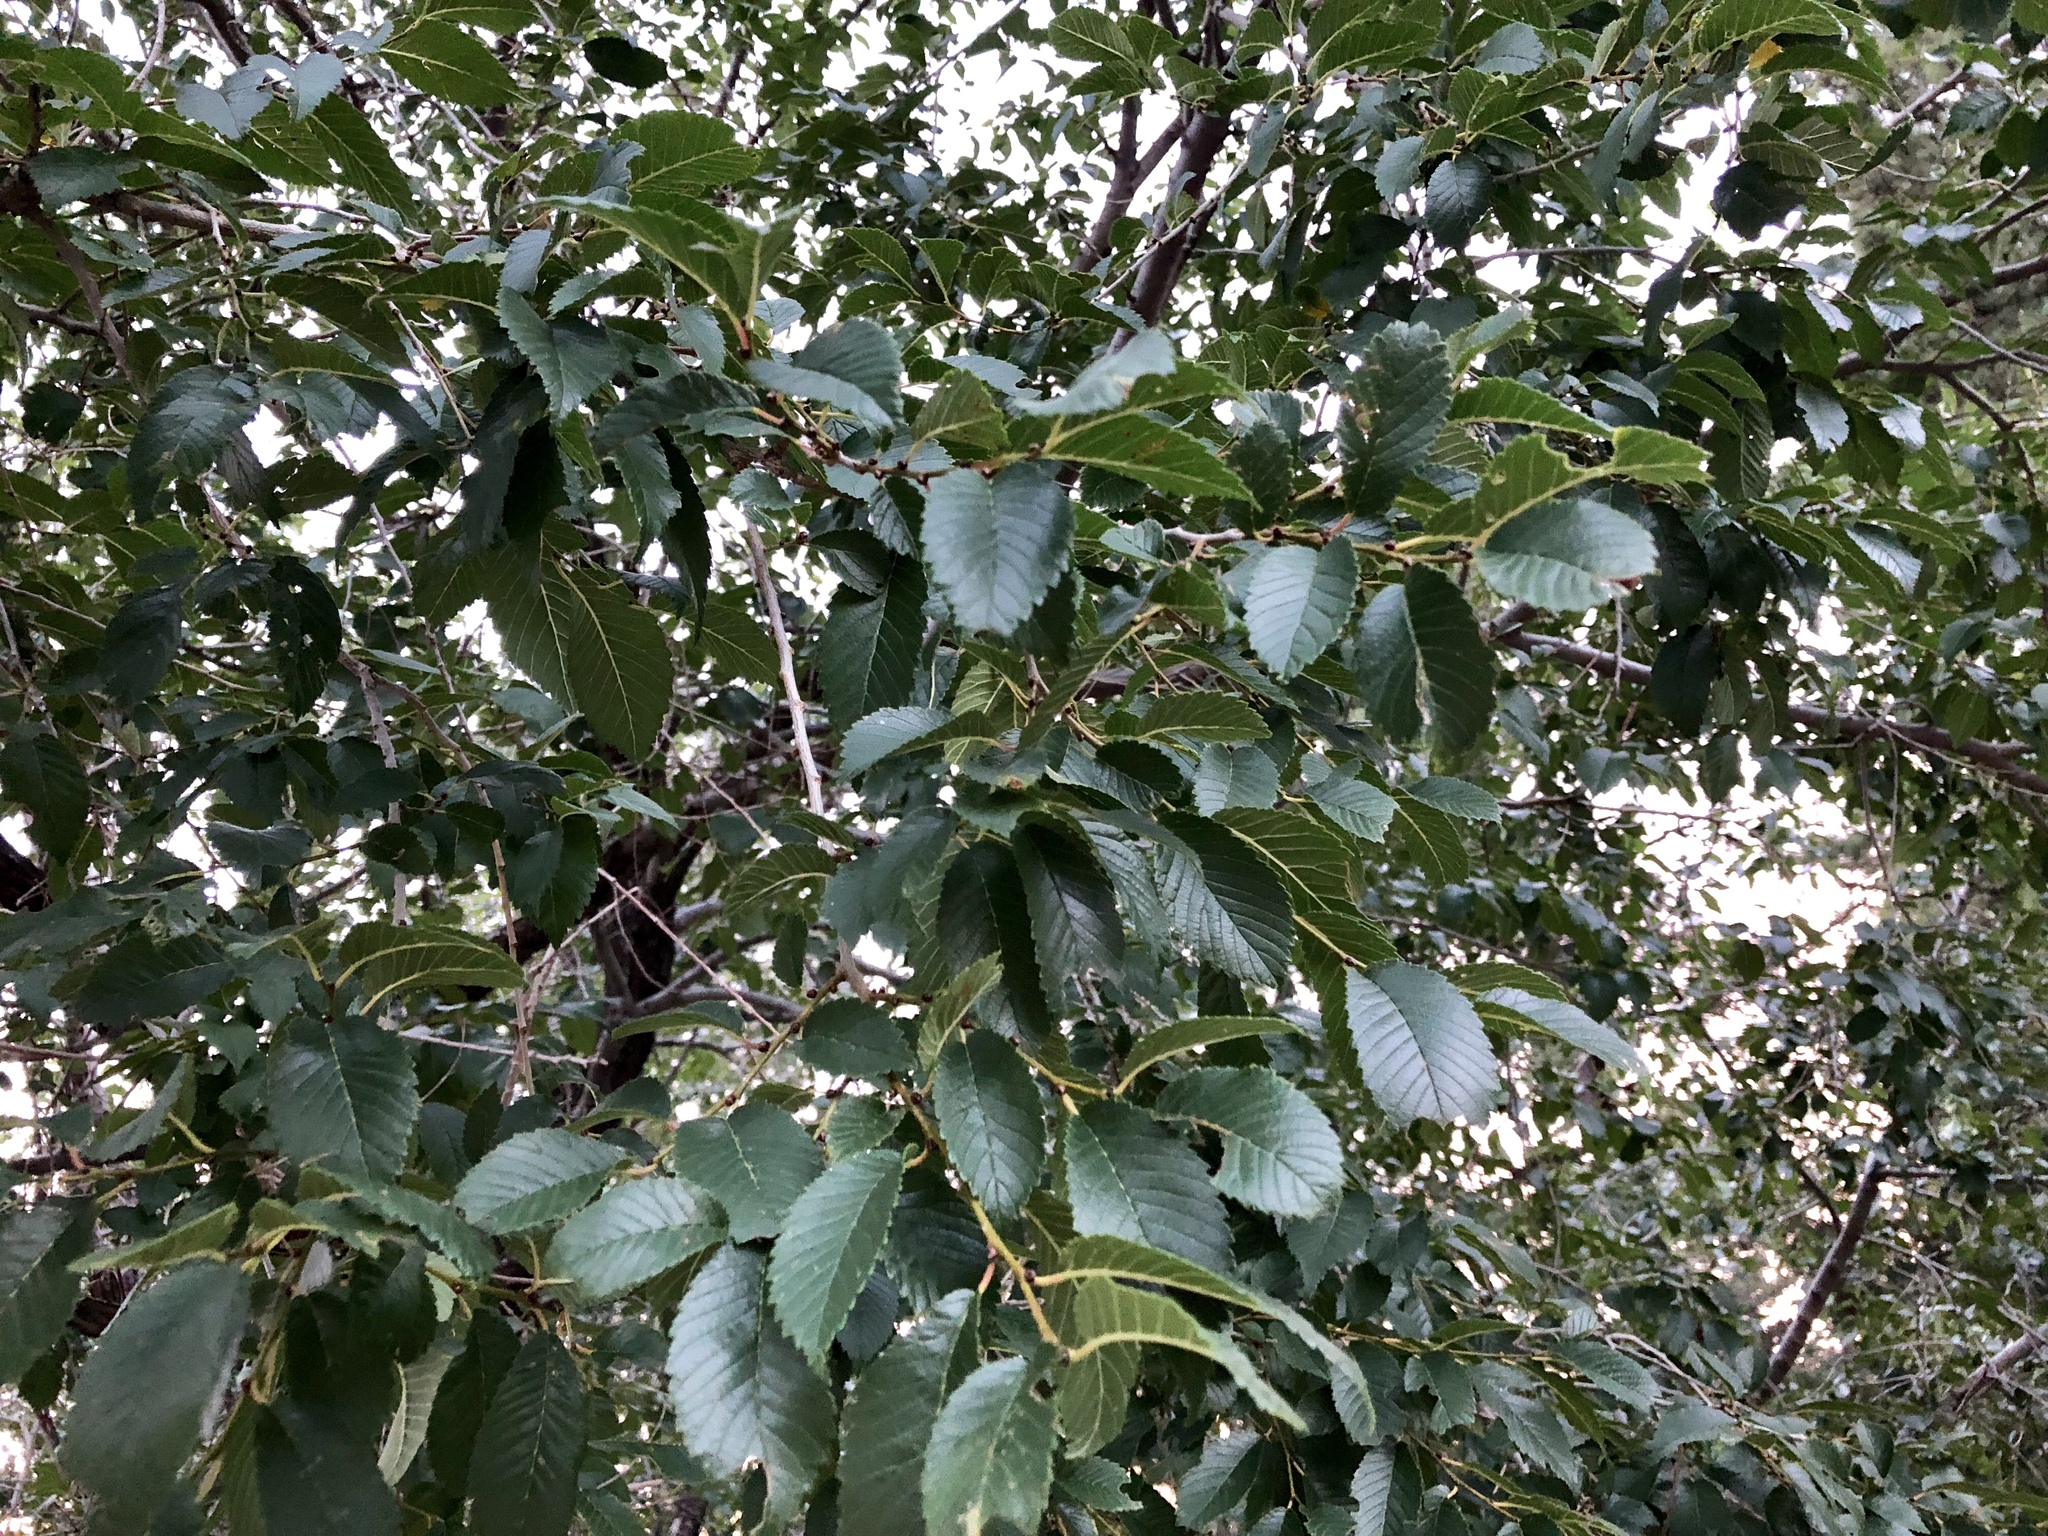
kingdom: Plantae
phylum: Tracheophyta
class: Magnoliopsida
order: Rosales
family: Ulmaceae
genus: Ulmus
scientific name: Ulmus pumila
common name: Siberian elm
